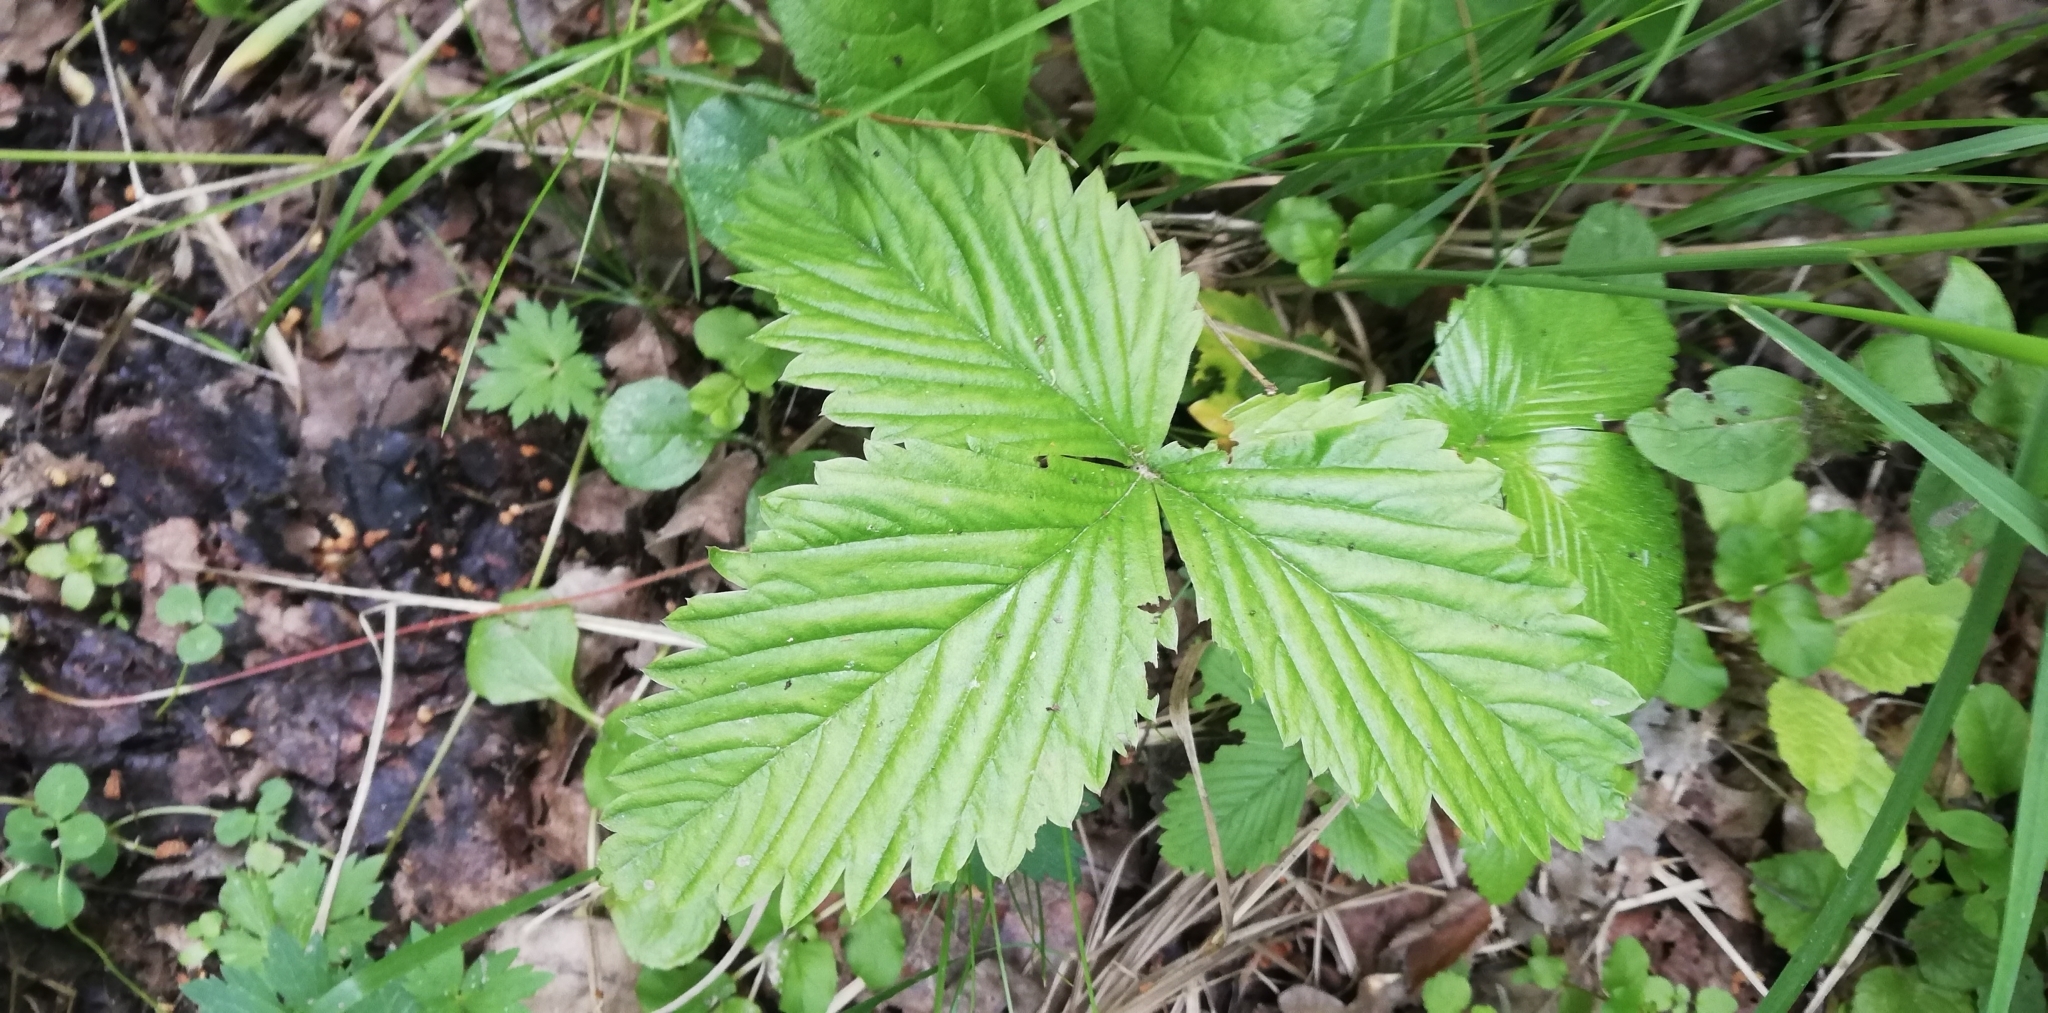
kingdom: Plantae
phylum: Tracheophyta
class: Magnoliopsida
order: Rosales
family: Rosaceae
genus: Fragaria
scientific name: Fragaria moschata
